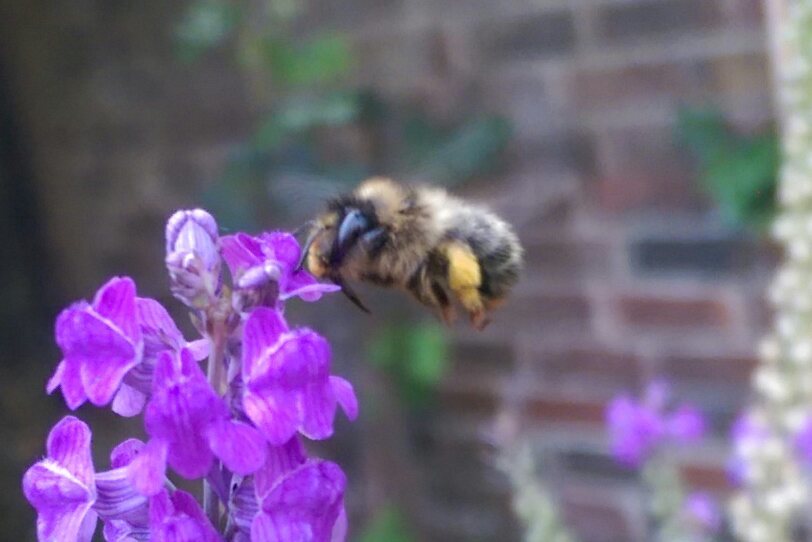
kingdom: Animalia
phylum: Arthropoda
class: Insecta
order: Hymenoptera
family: Apidae
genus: Anthophora
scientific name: Anthophora furcata
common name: Fork-tailed flower bee
